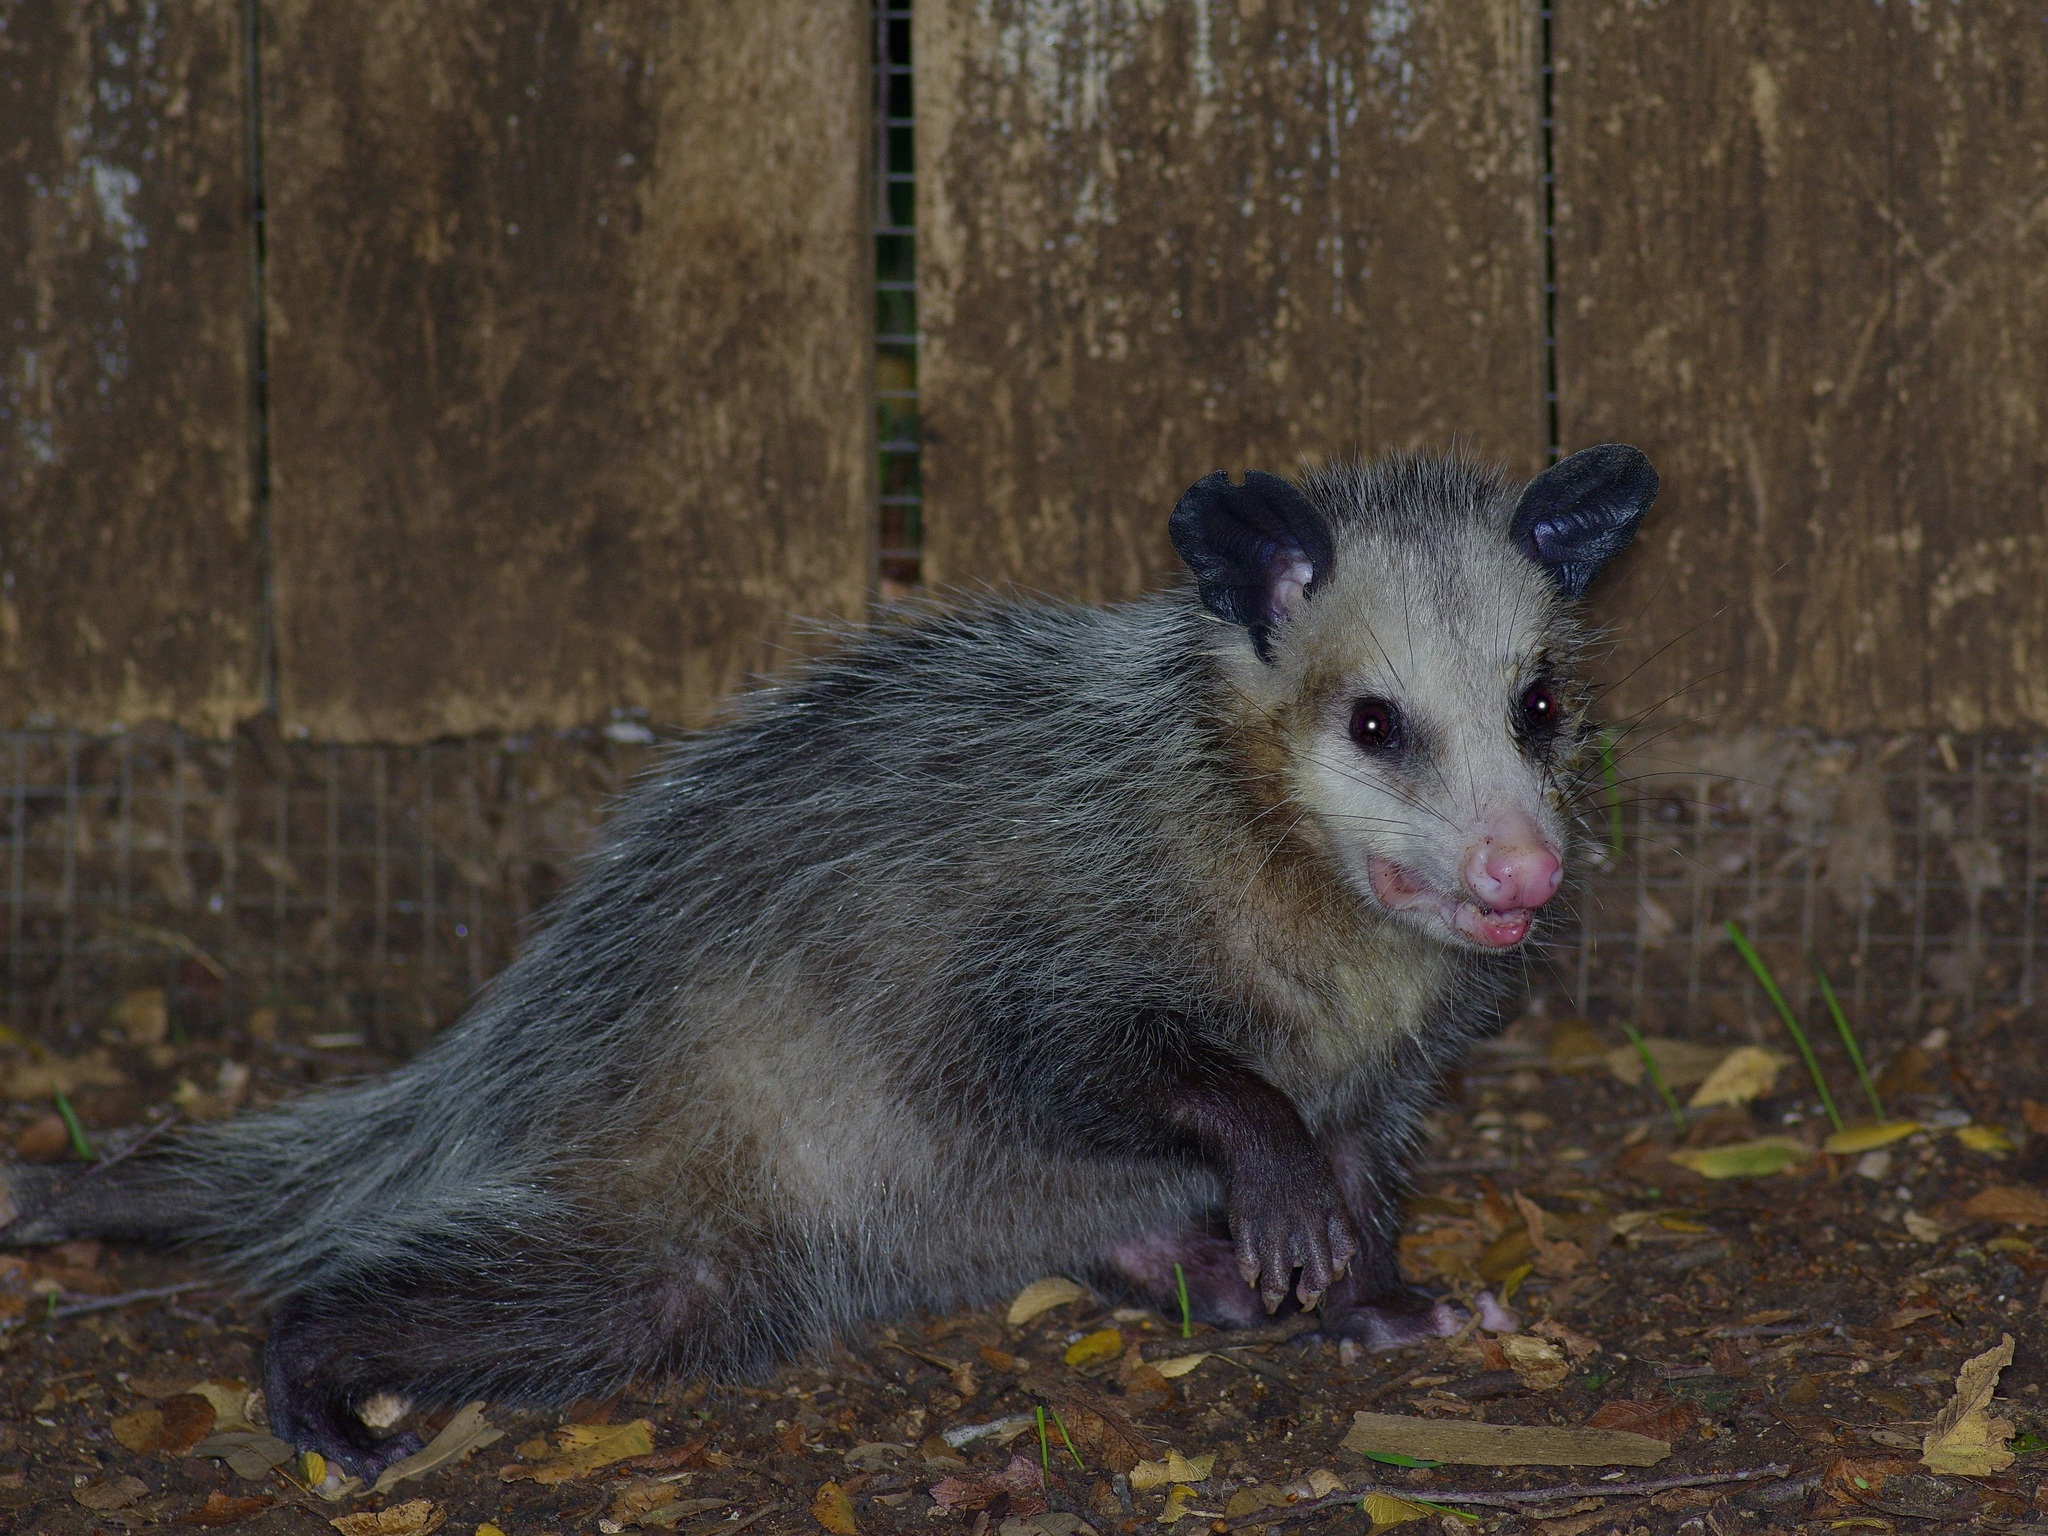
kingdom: Animalia
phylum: Chordata
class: Mammalia
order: Didelphimorphia
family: Didelphidae
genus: Didelphis
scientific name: Didelphis virginiana
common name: Virginia opossum
